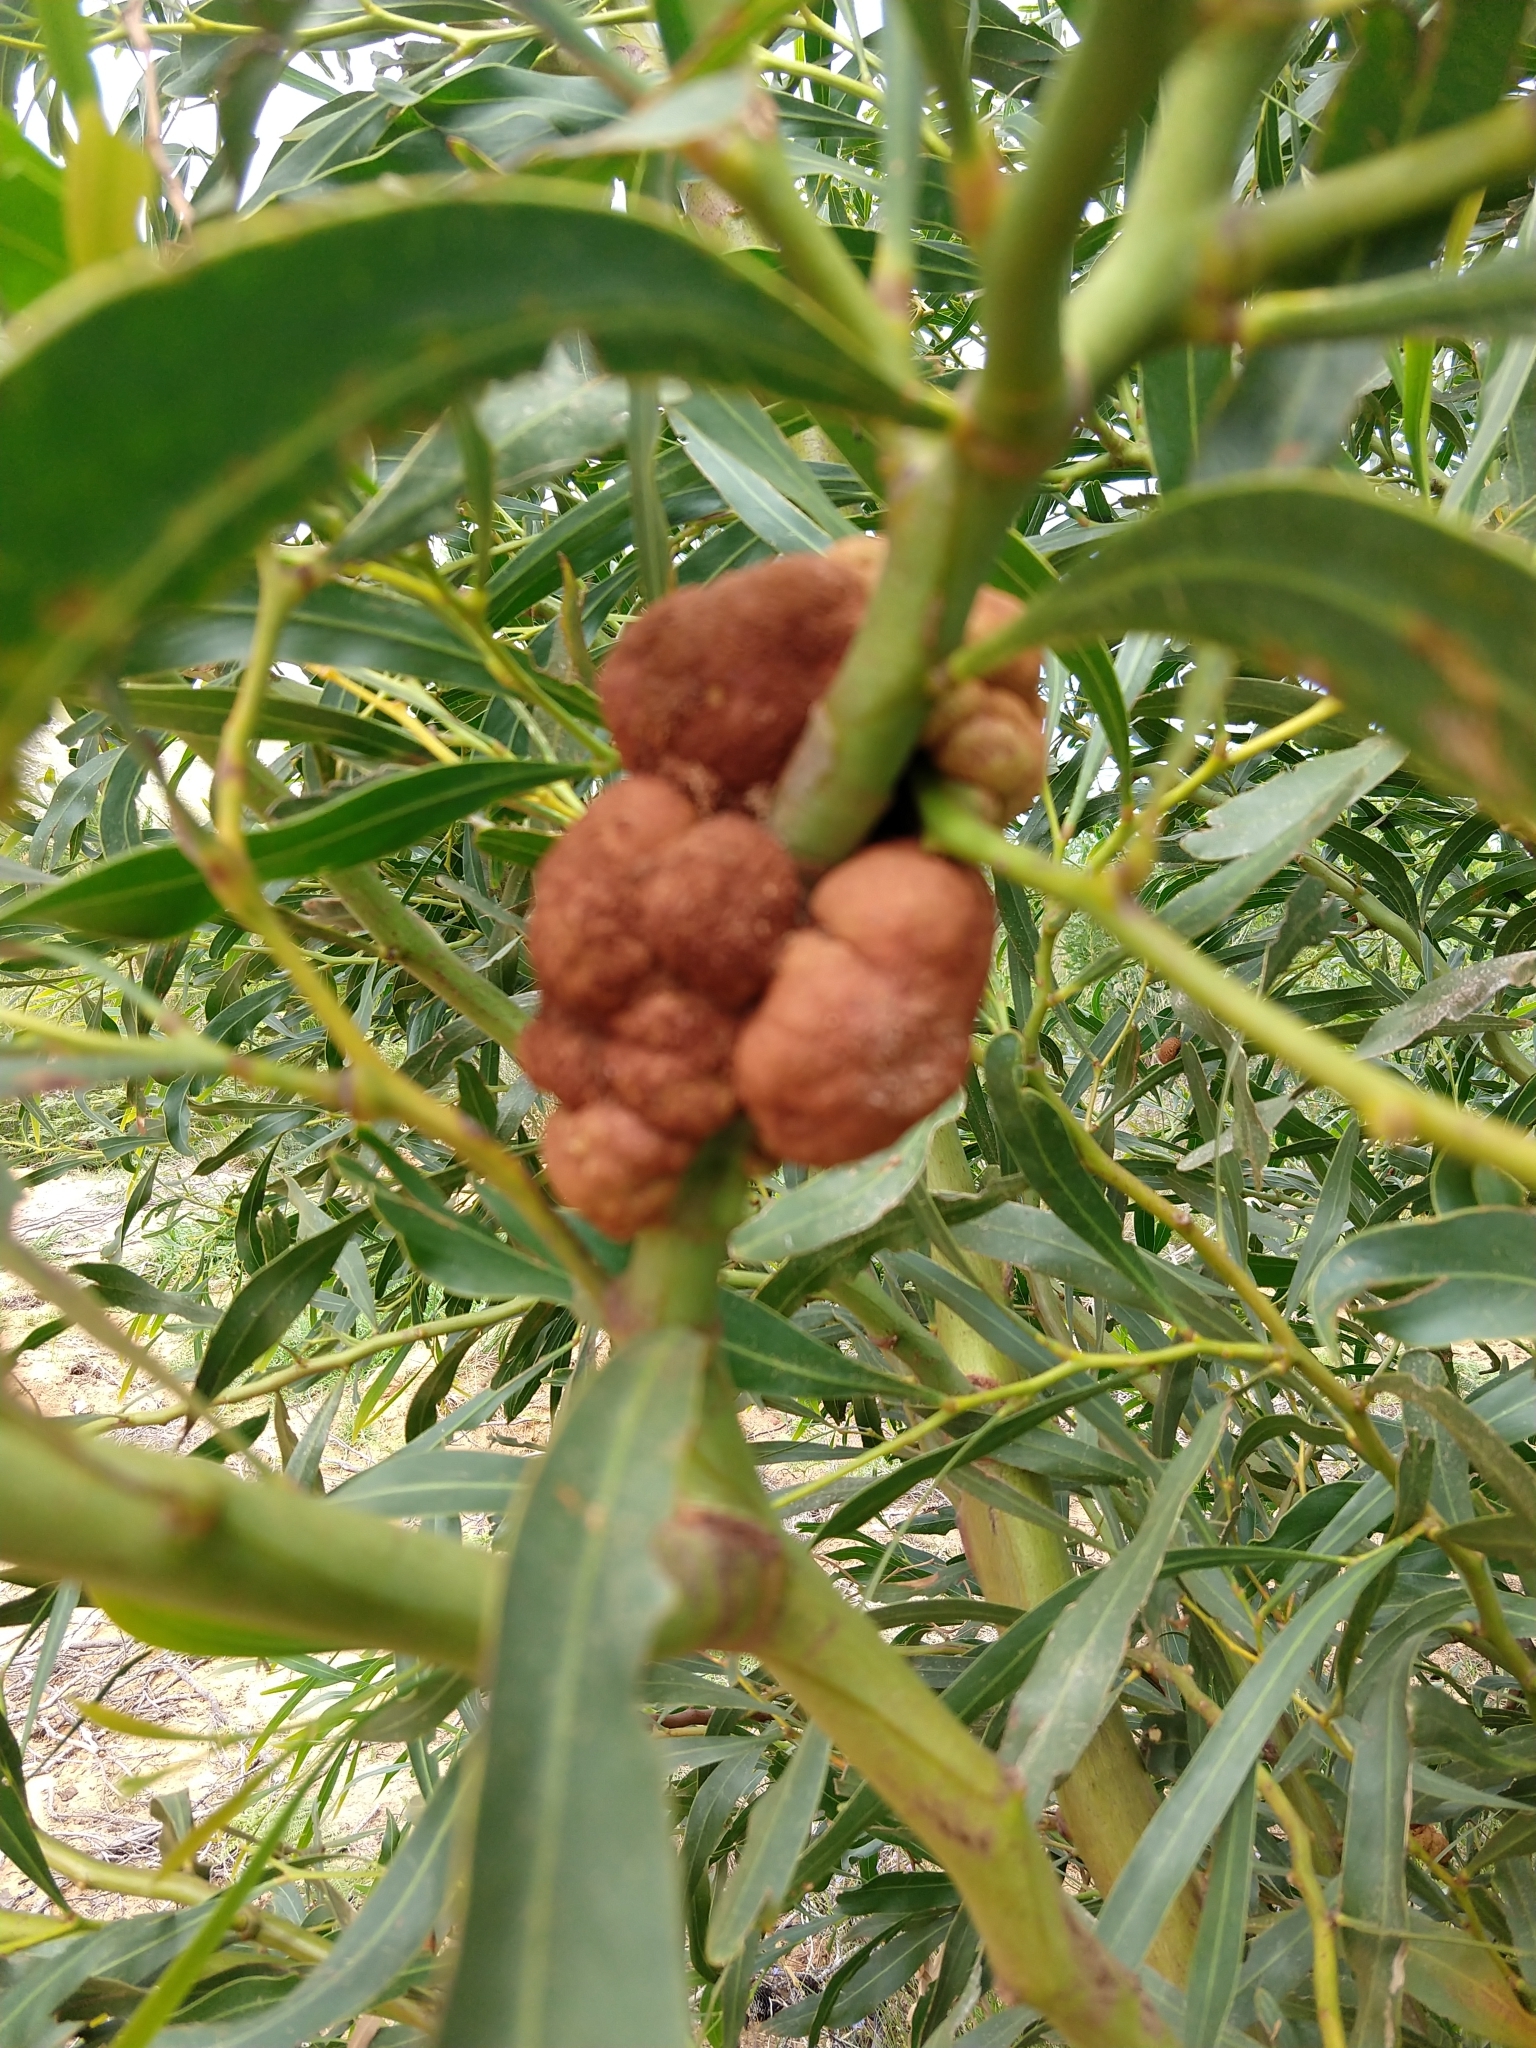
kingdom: Fungi
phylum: Basidiomycota
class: Pucciniomycetes
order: Pucciniales
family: Uromycladiaceae
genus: Uromycladium
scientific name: Uromycladium morrisii
